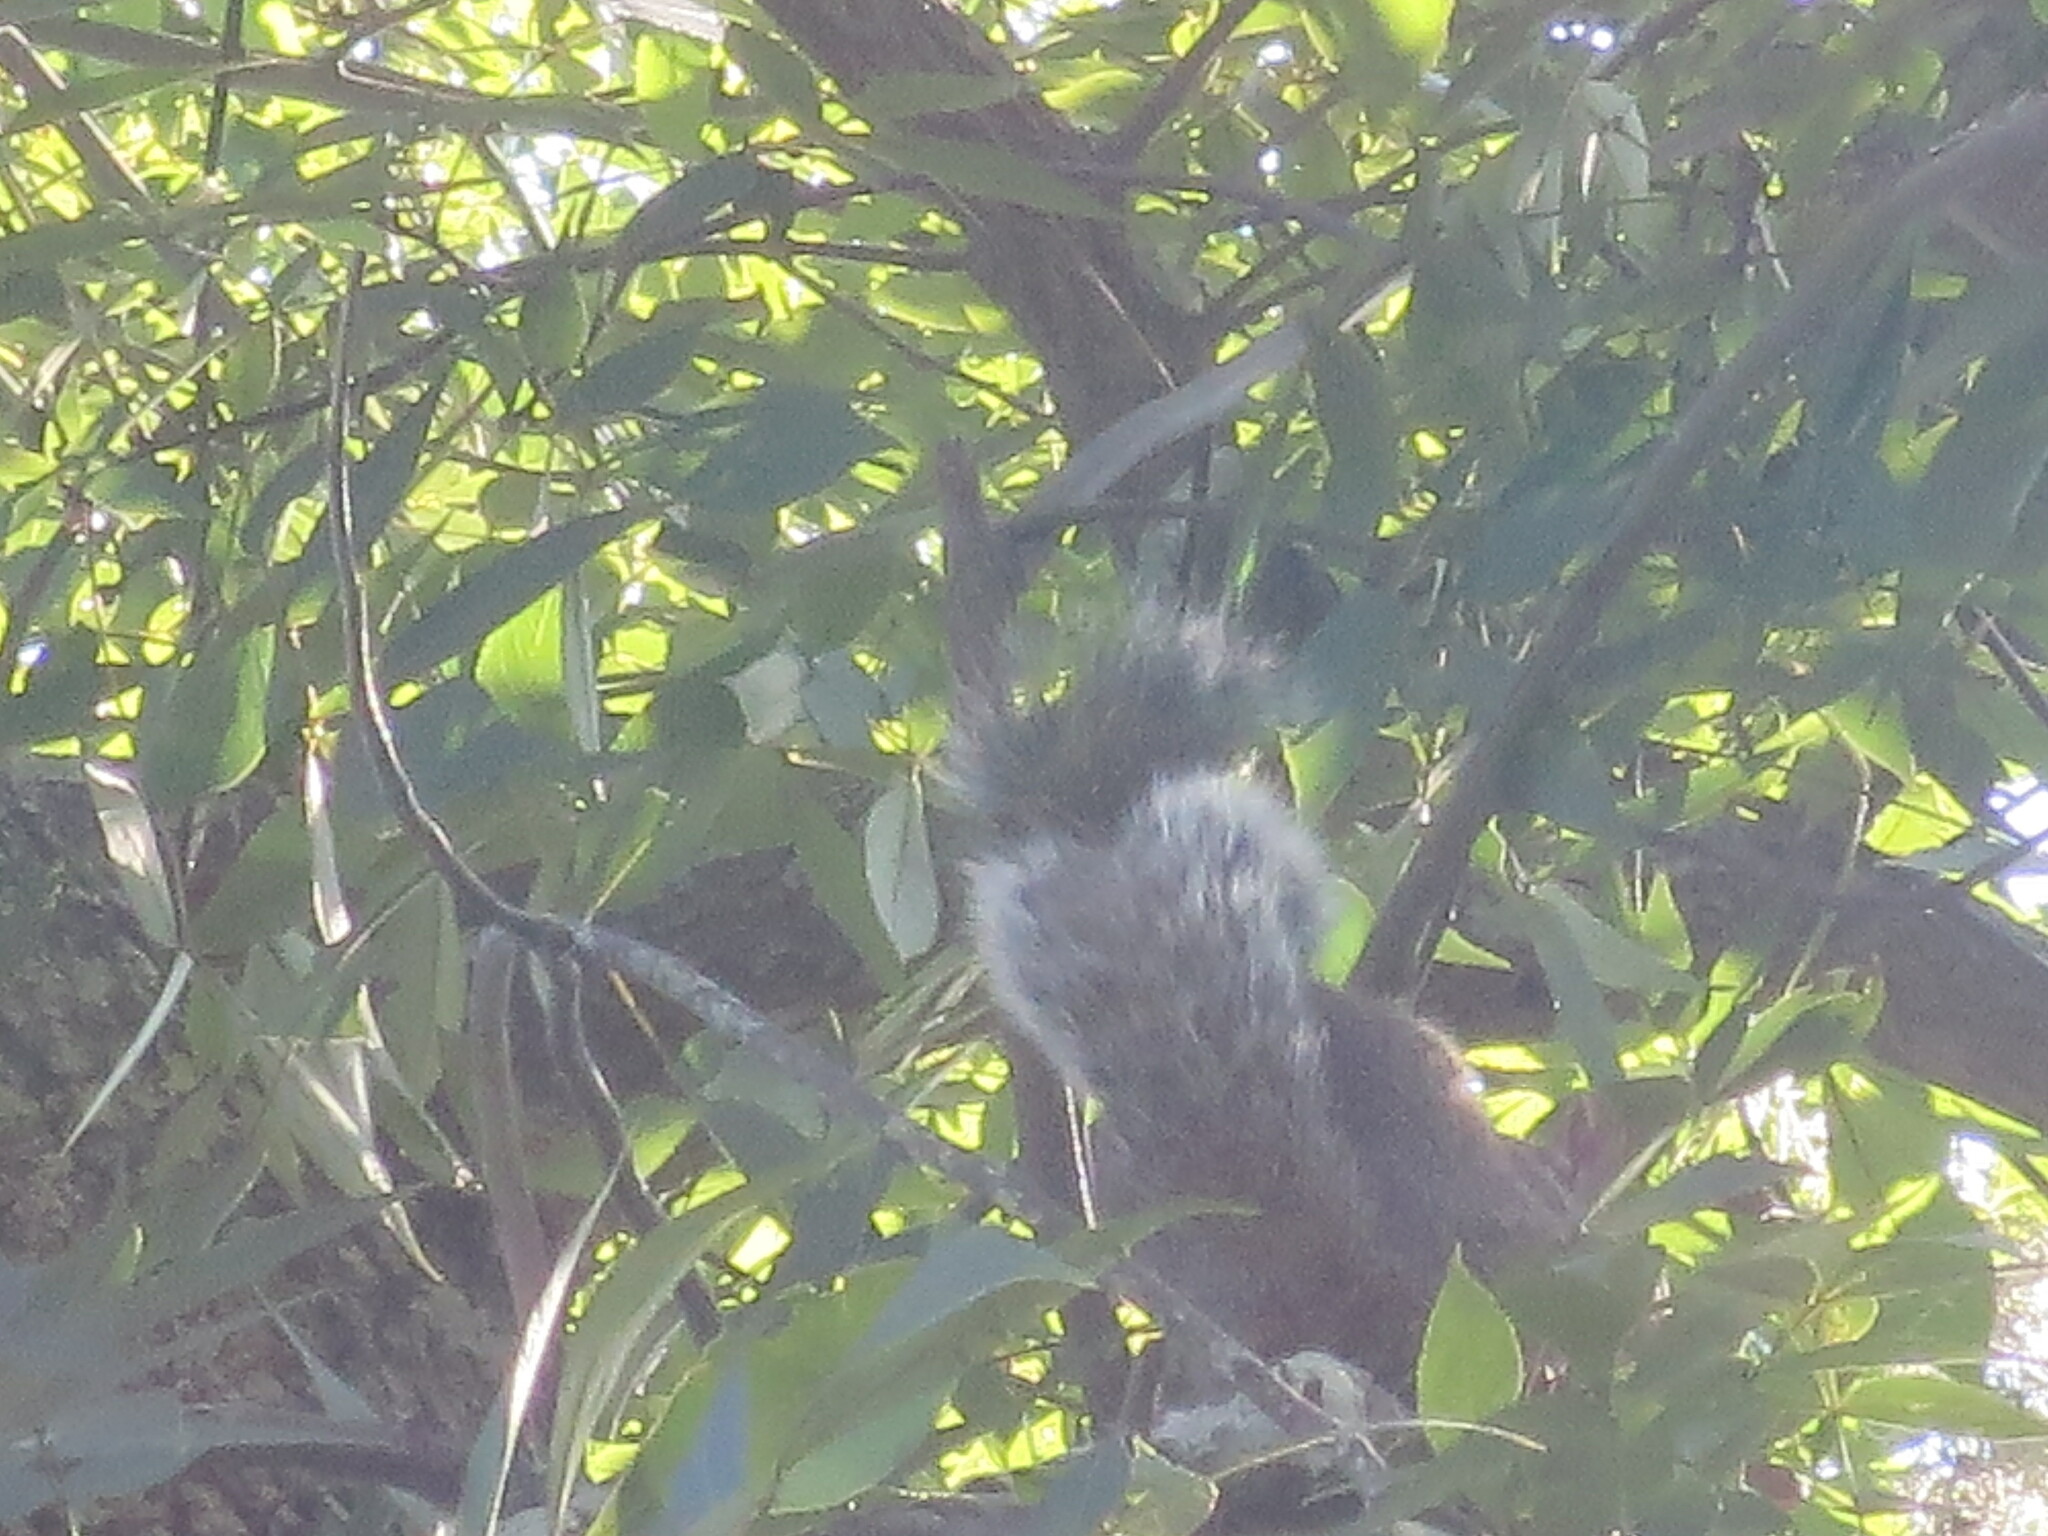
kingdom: Animalia
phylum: Chordata
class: Mammalia
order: Rodentia
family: Sciuridae
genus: Sciurus
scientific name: Sciurus carolinensis
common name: Eastern gray squirrel
